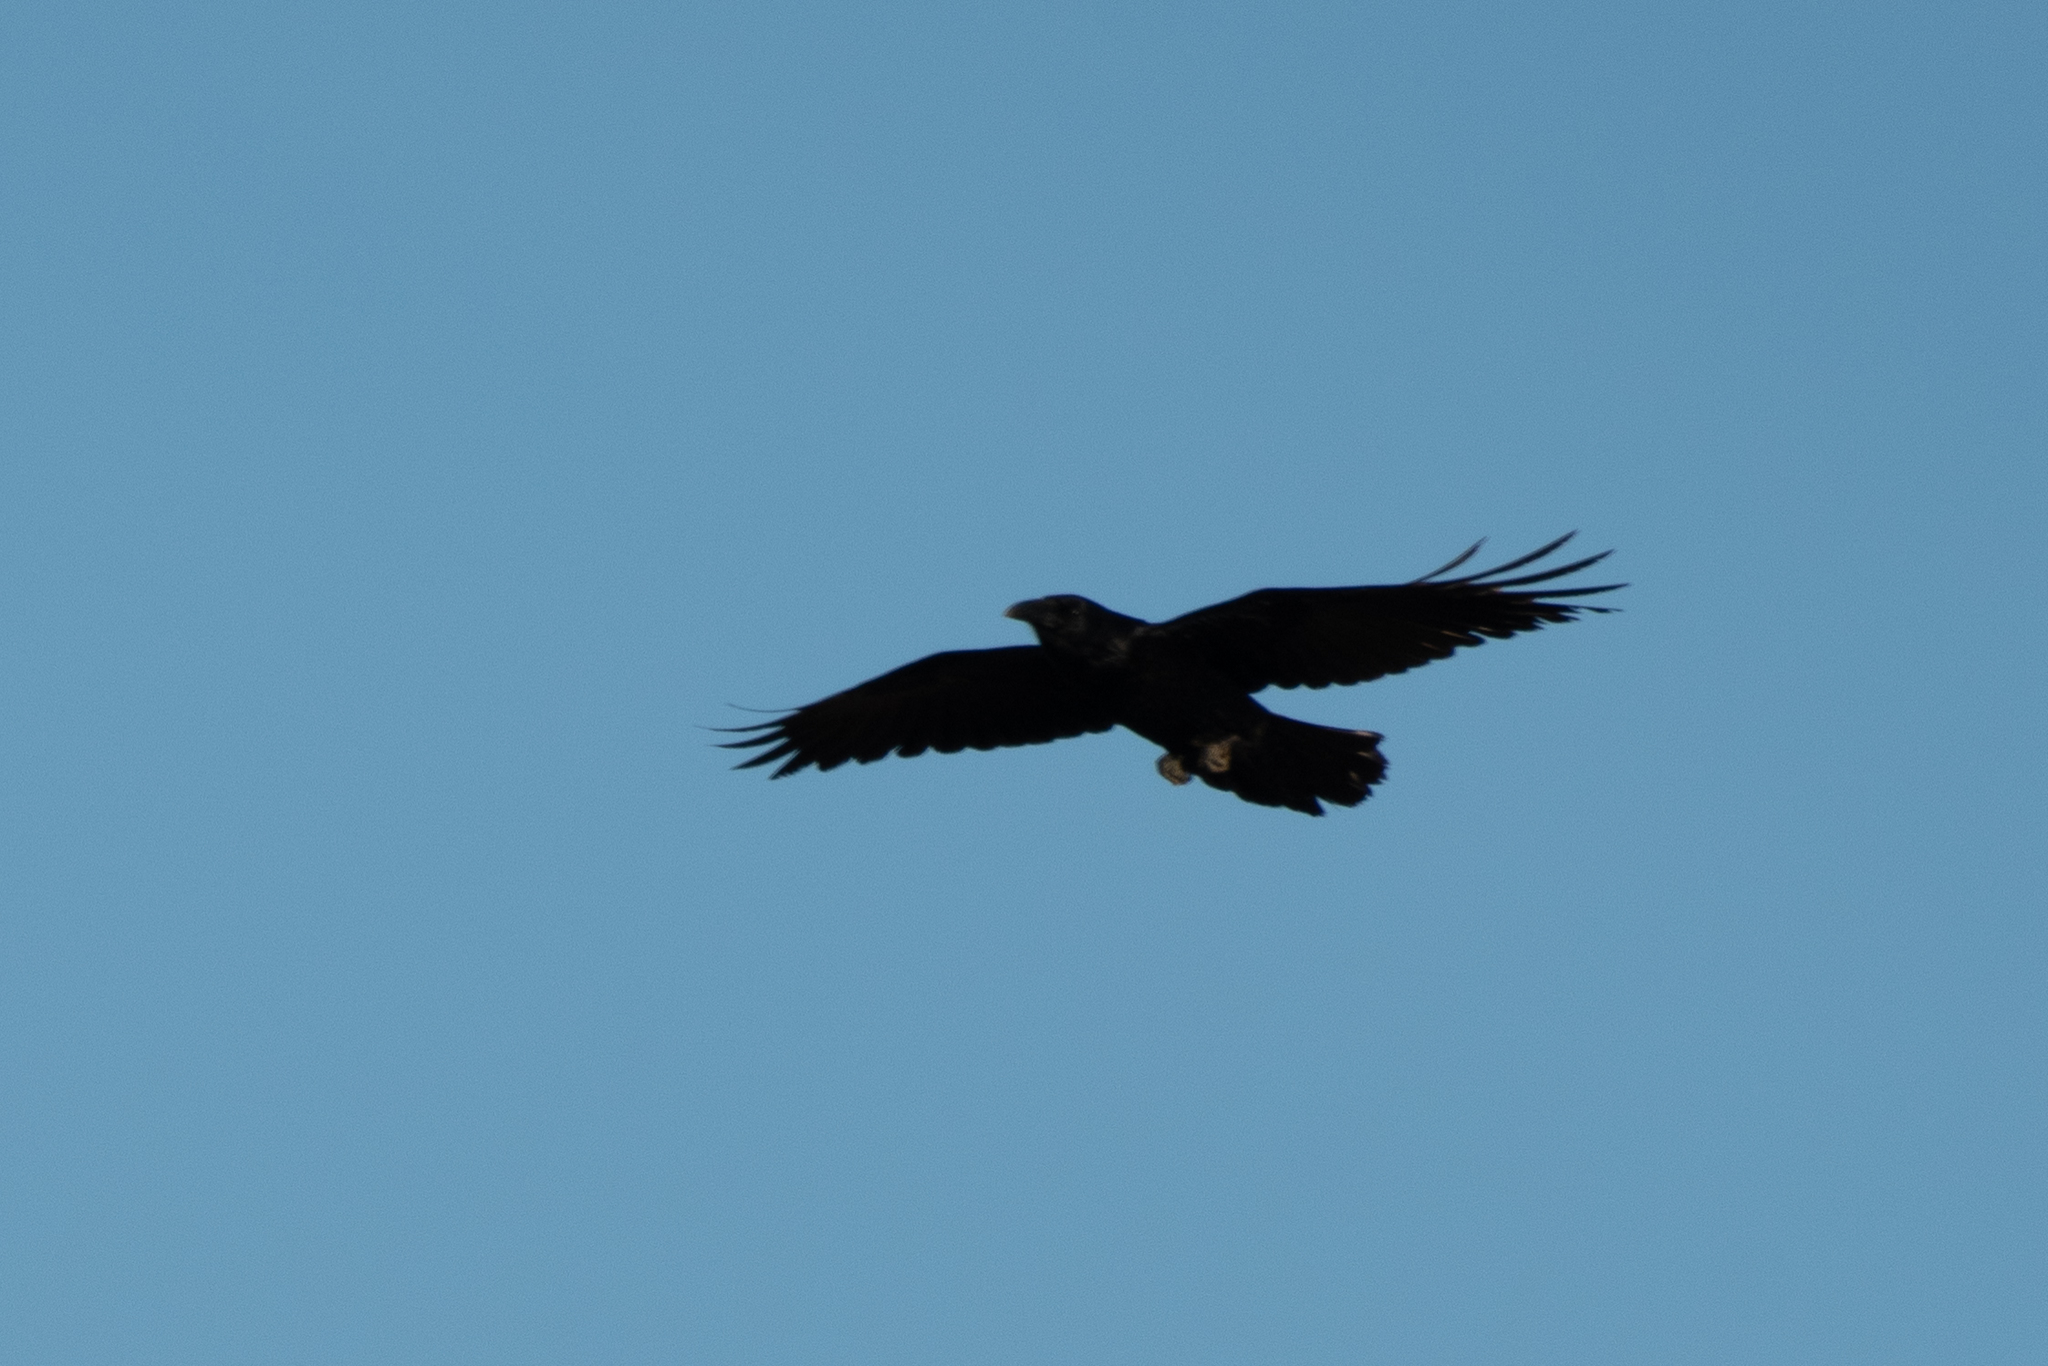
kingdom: Animalia
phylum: Chordata
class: Aves
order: Passeriformes
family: Corvidae
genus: Corvus
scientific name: Corvus corax
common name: Common raven
